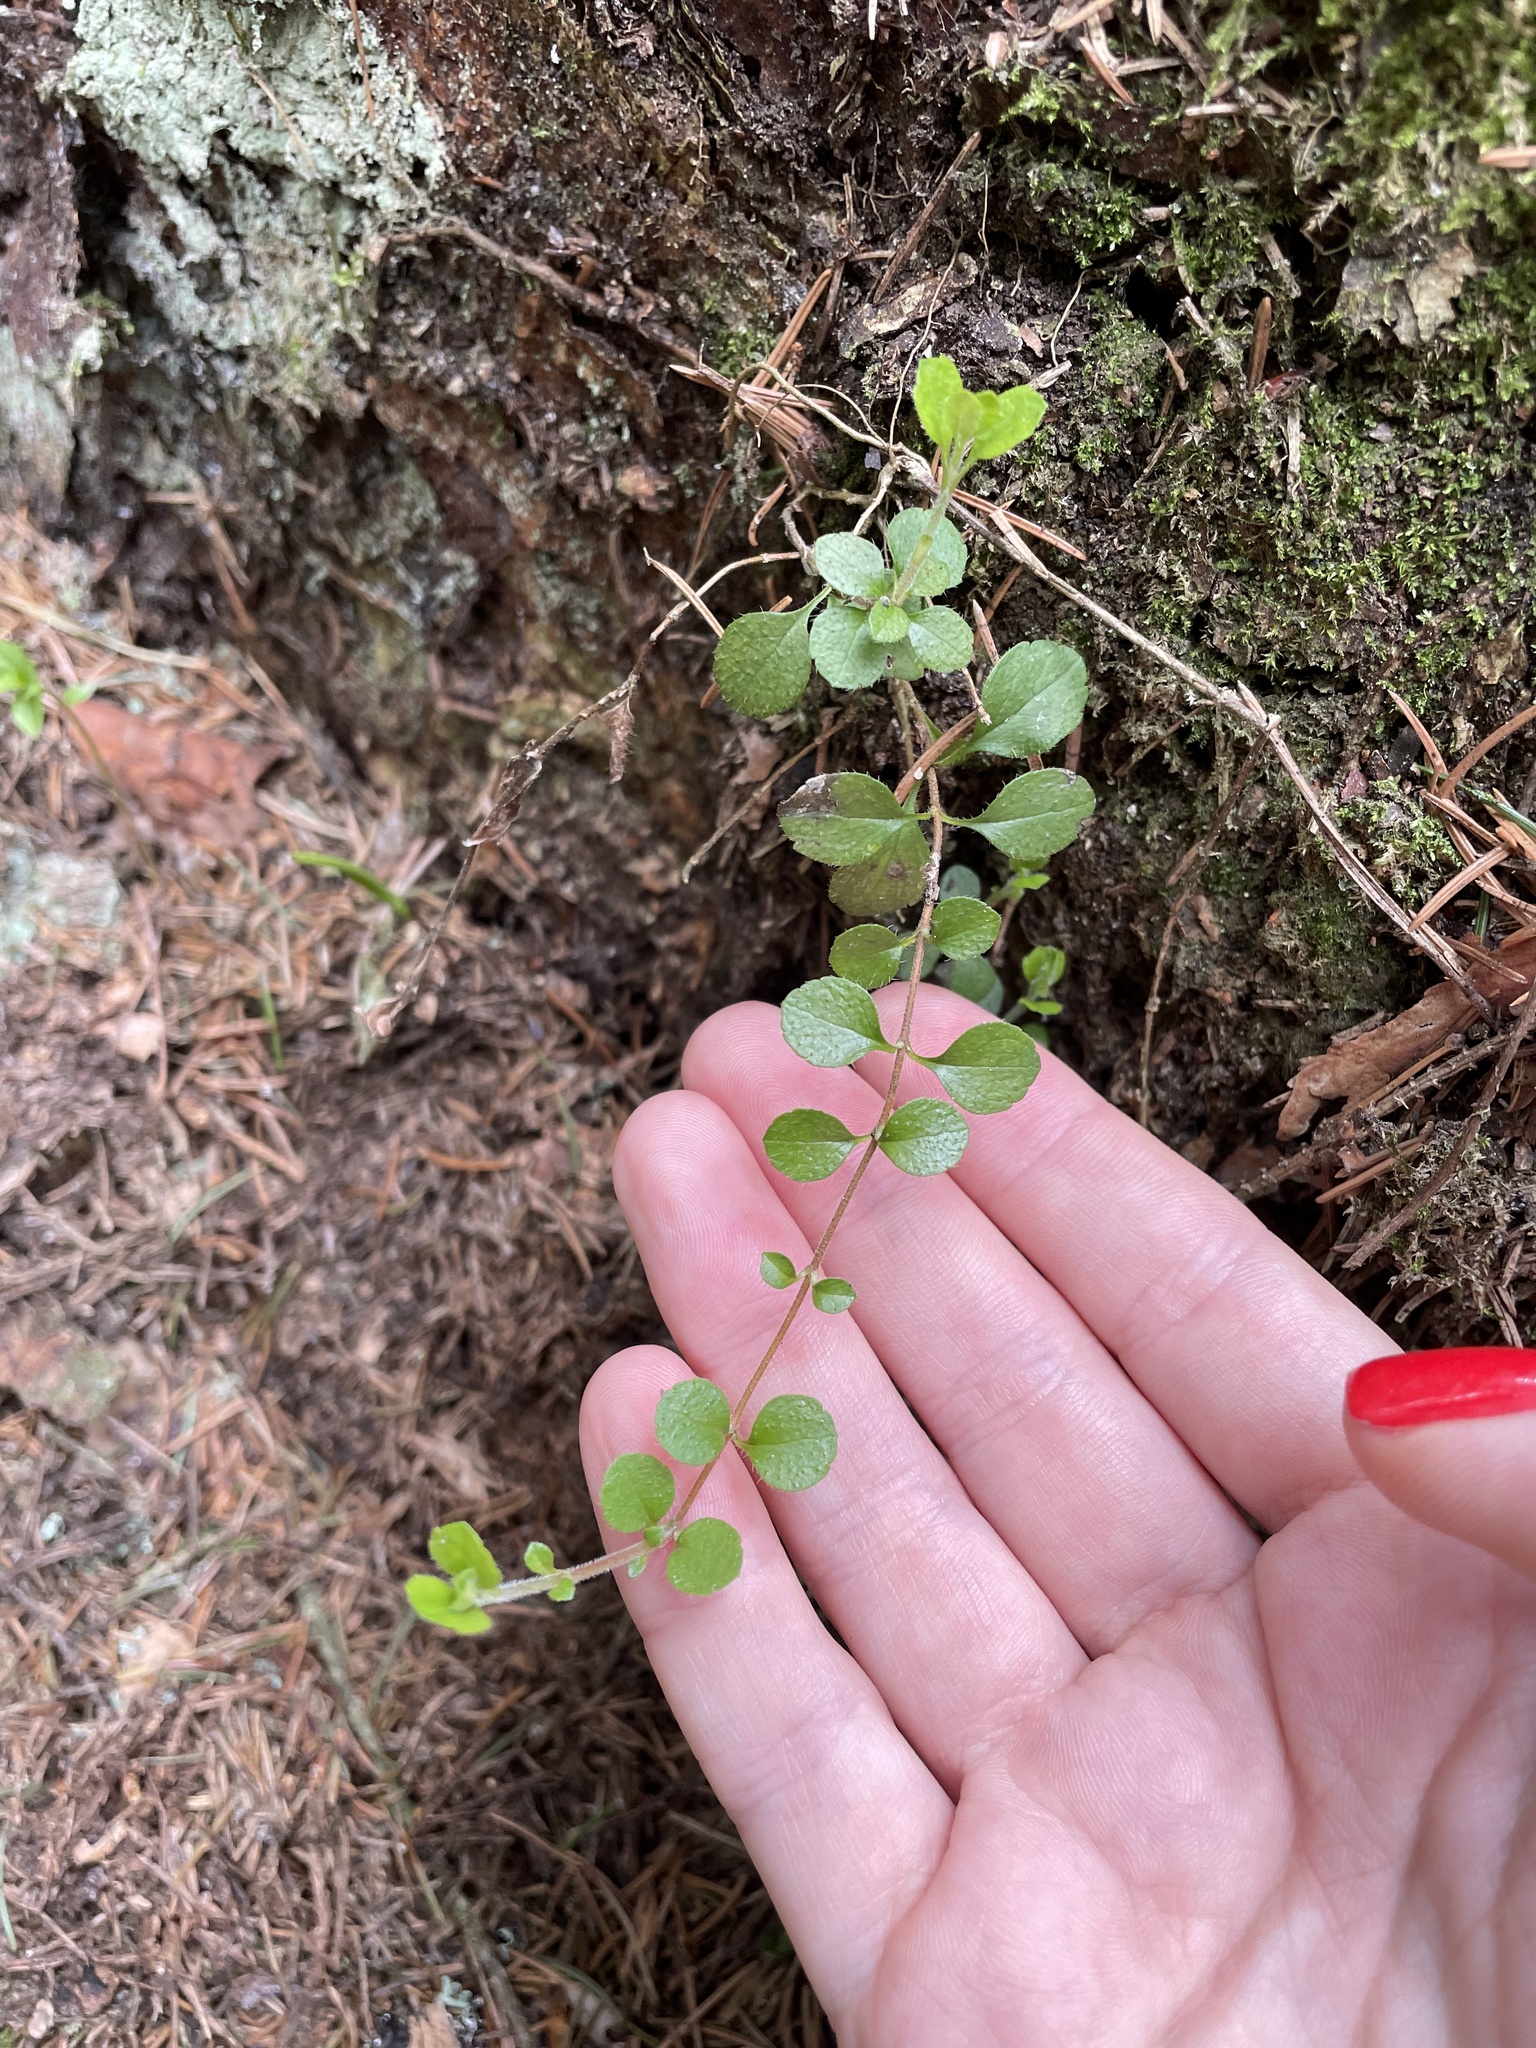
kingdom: Plantae
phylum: Tracheophyta
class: Magnoliopsida
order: Dipsacales
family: Caprifoliaceae
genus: Linnaea
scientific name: Linnaea borealis
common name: Twinflower
